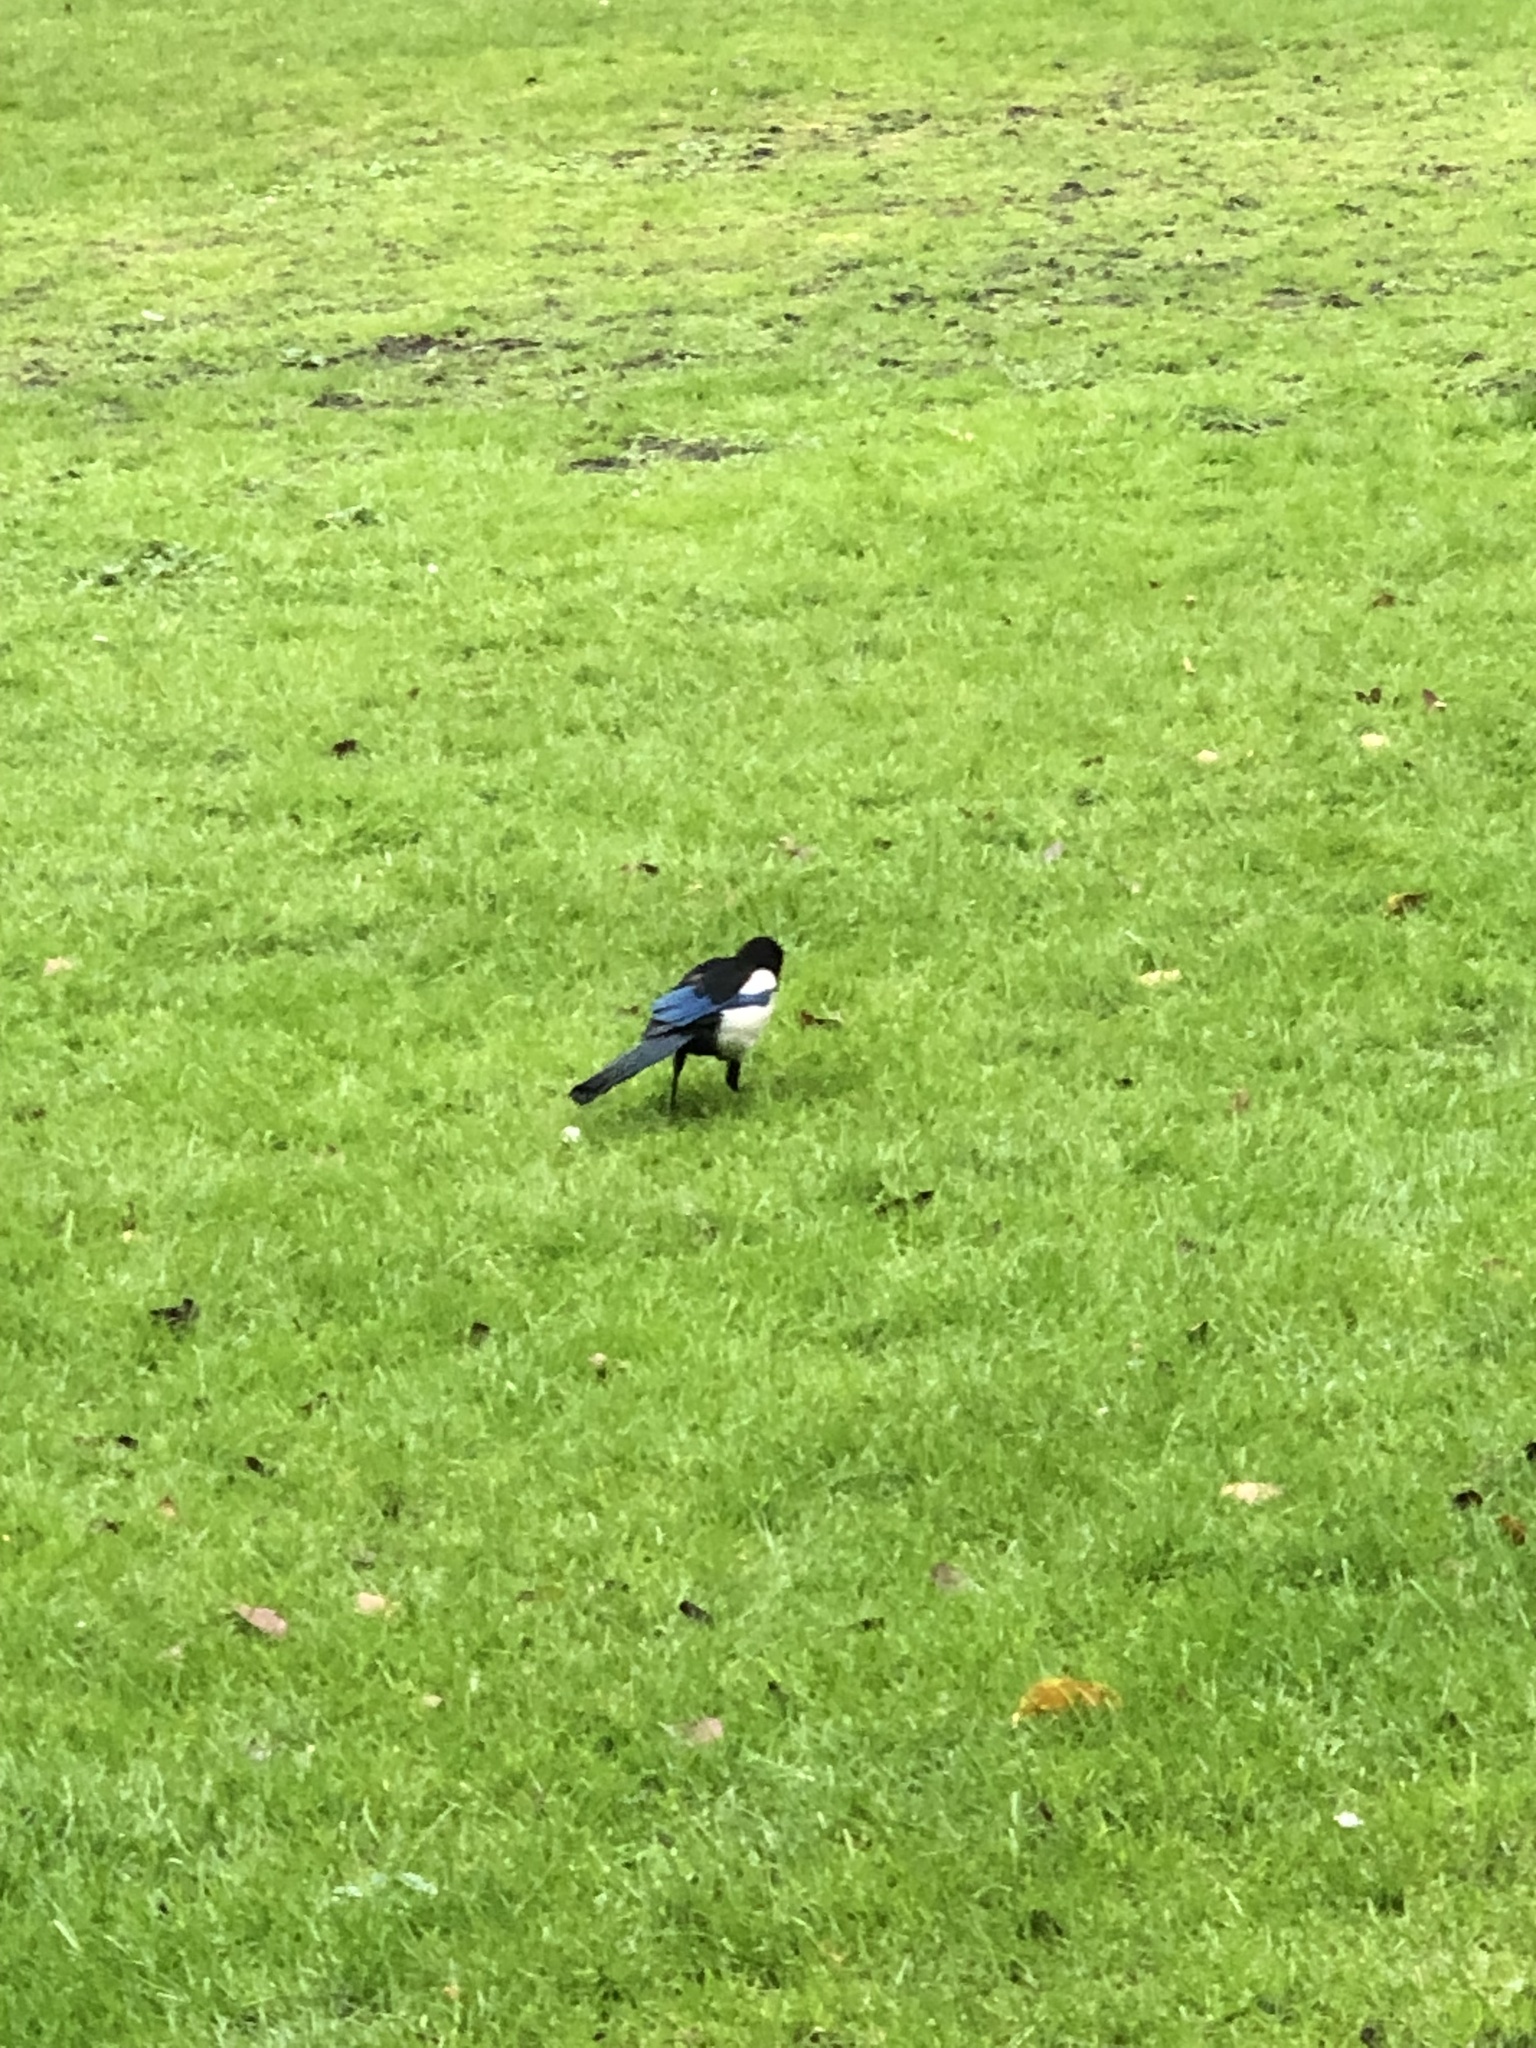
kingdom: Animalia
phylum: Chordata
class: Aves
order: Passeriformes
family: Corvidae
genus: Pica
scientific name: Pica pica
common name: Eurasian magpie
